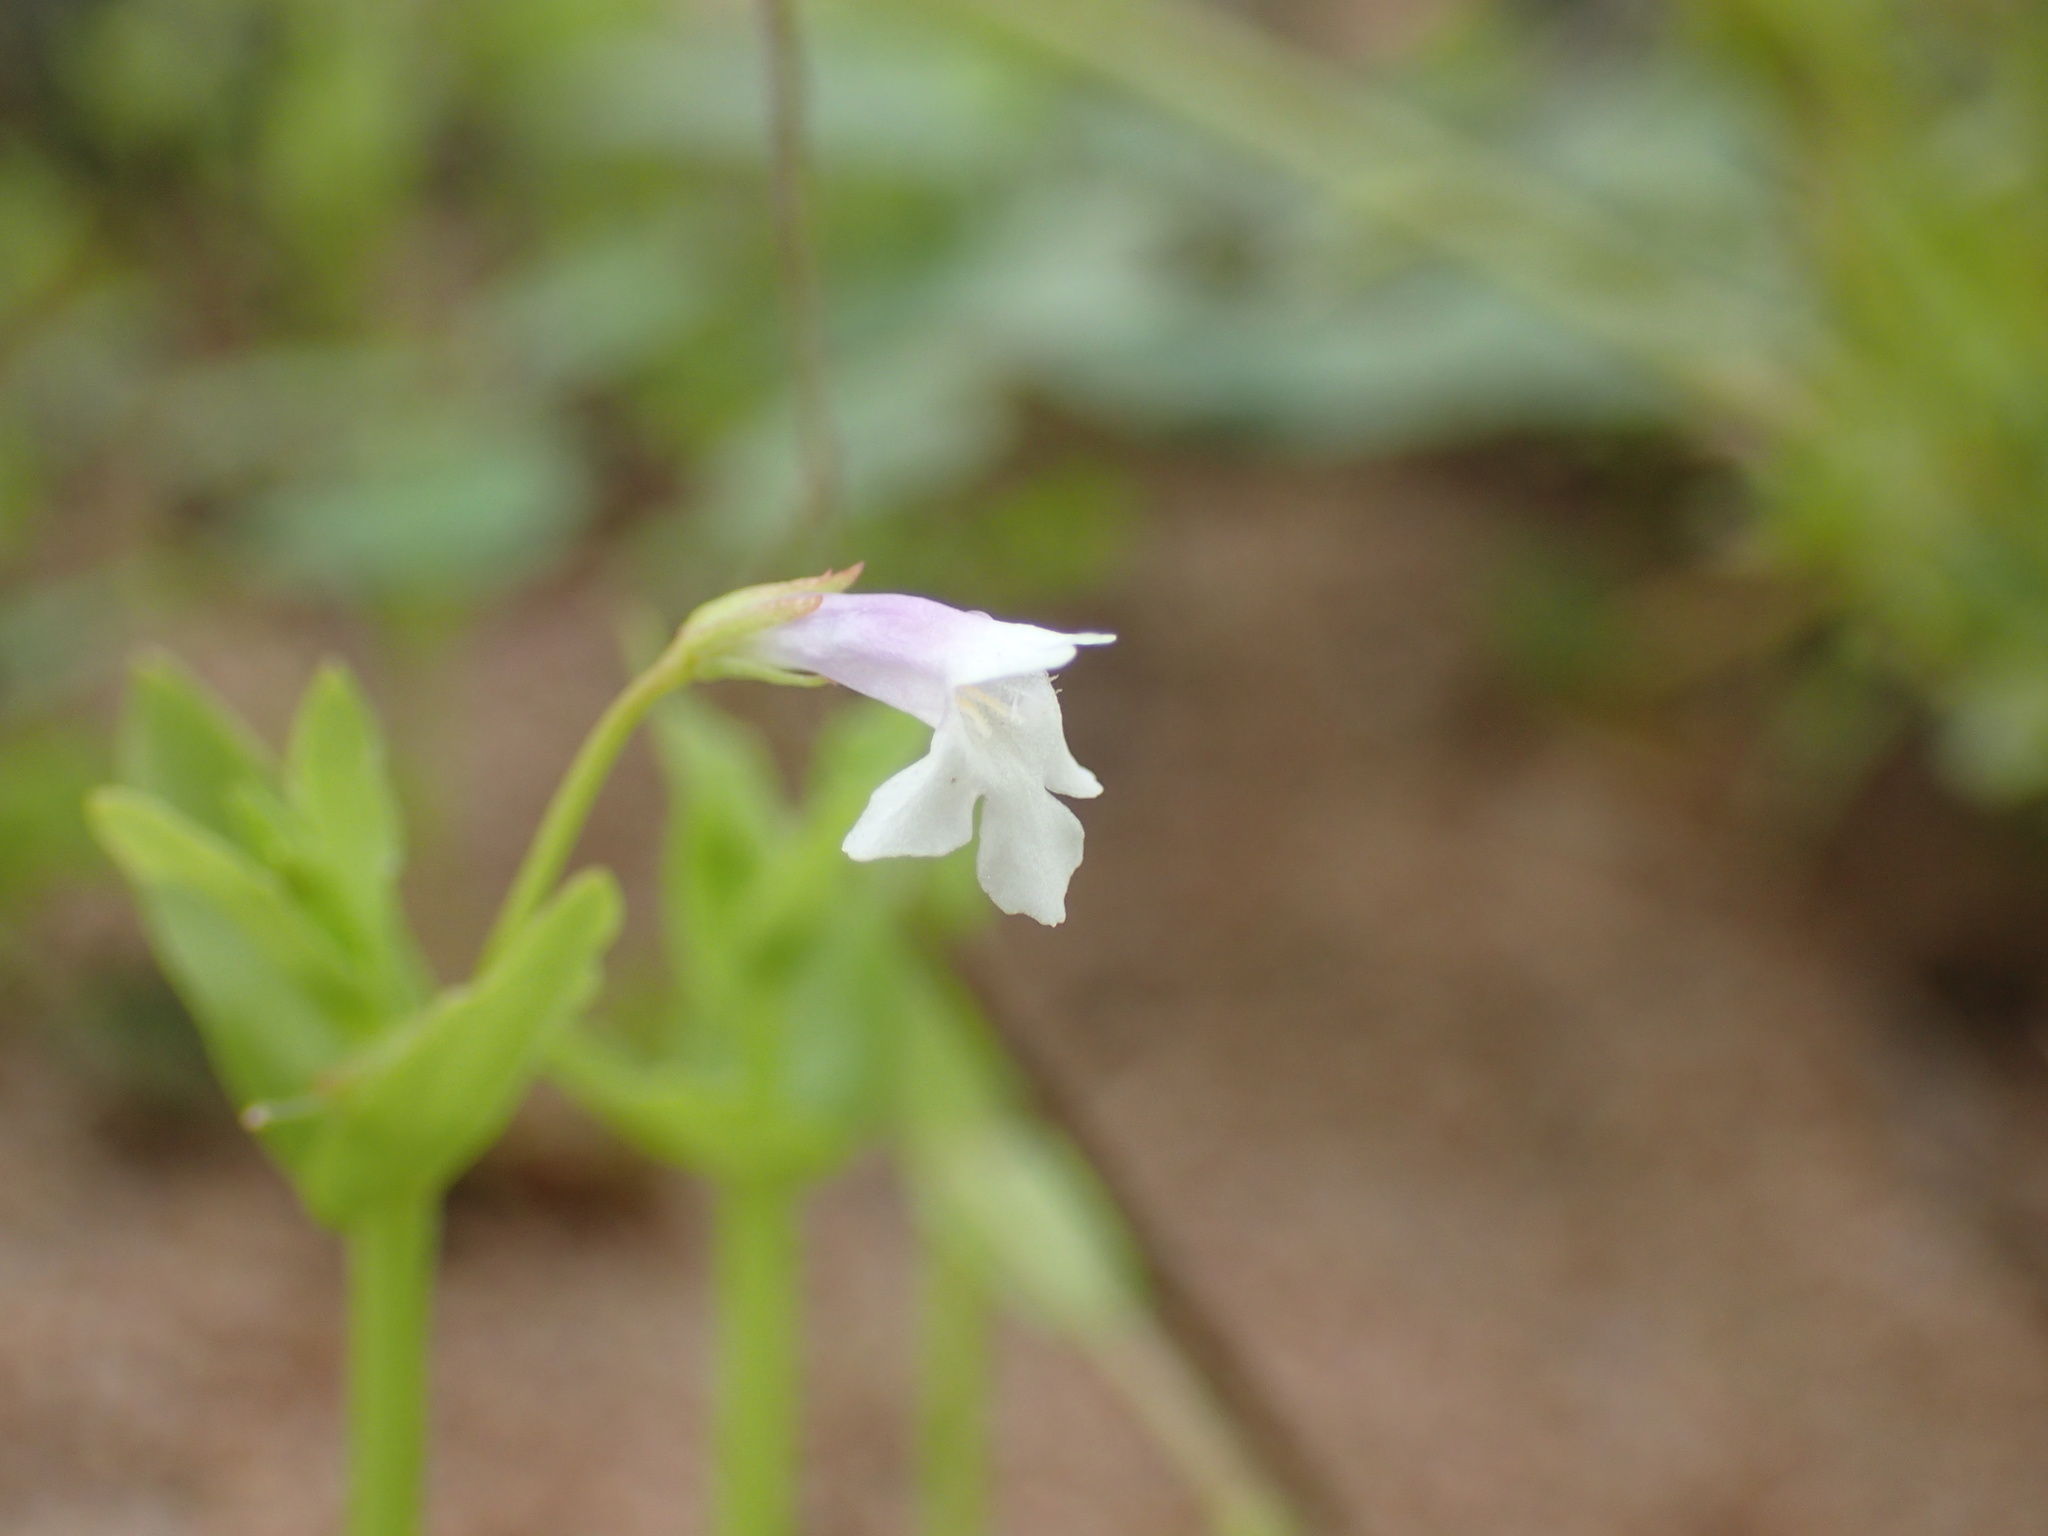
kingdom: Plantae
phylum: Tracheophyta
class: Magnoliopsida
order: Lamiales
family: Linderniaceae
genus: Lindernia
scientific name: Lindernia parviflora
